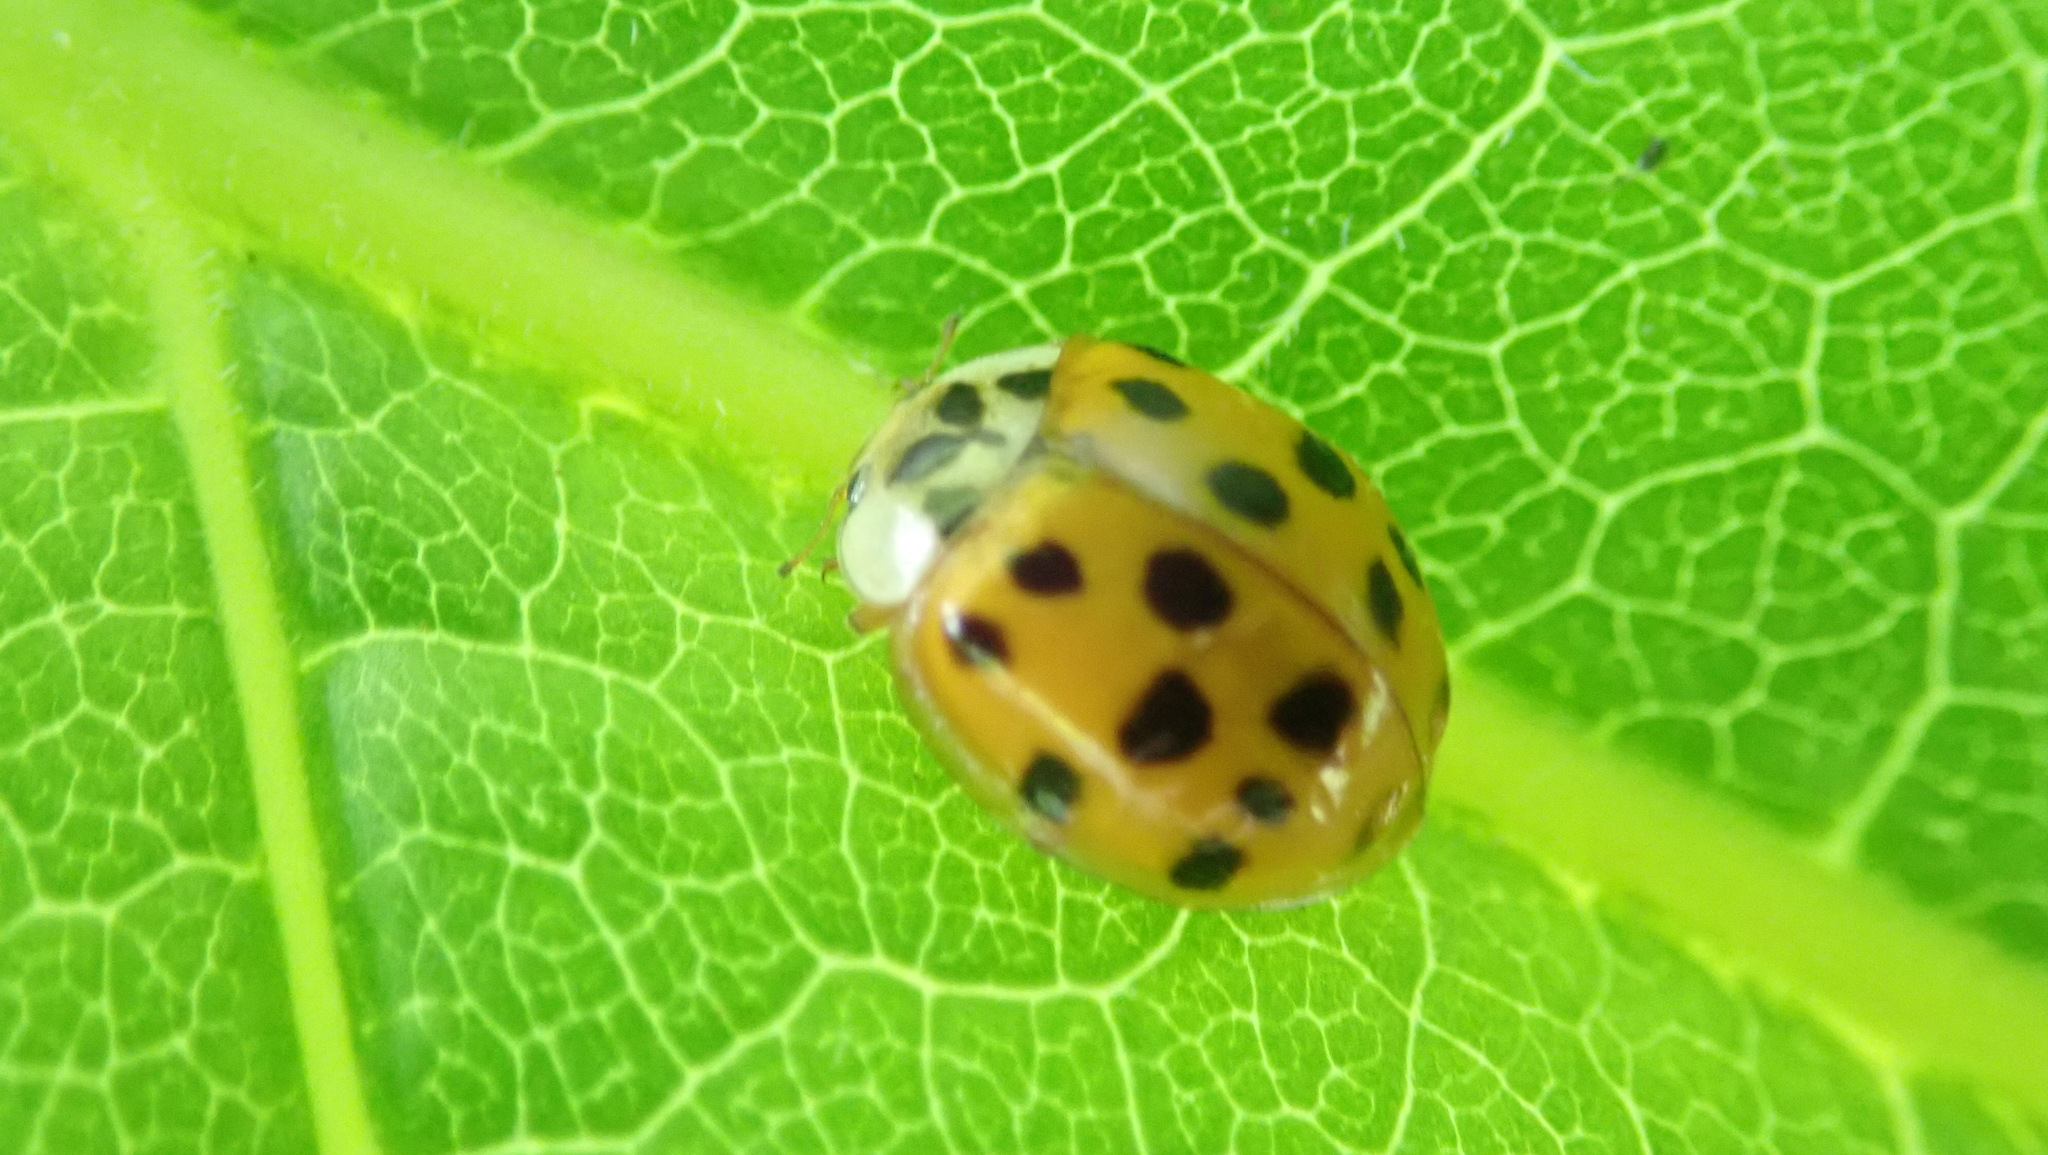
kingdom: Animalia
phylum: Arthropoda
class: Insecta
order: Coleoptera
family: Coccinellidae
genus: Harmonia
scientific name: Harmonia axyridis
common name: Harlequin ladybird
